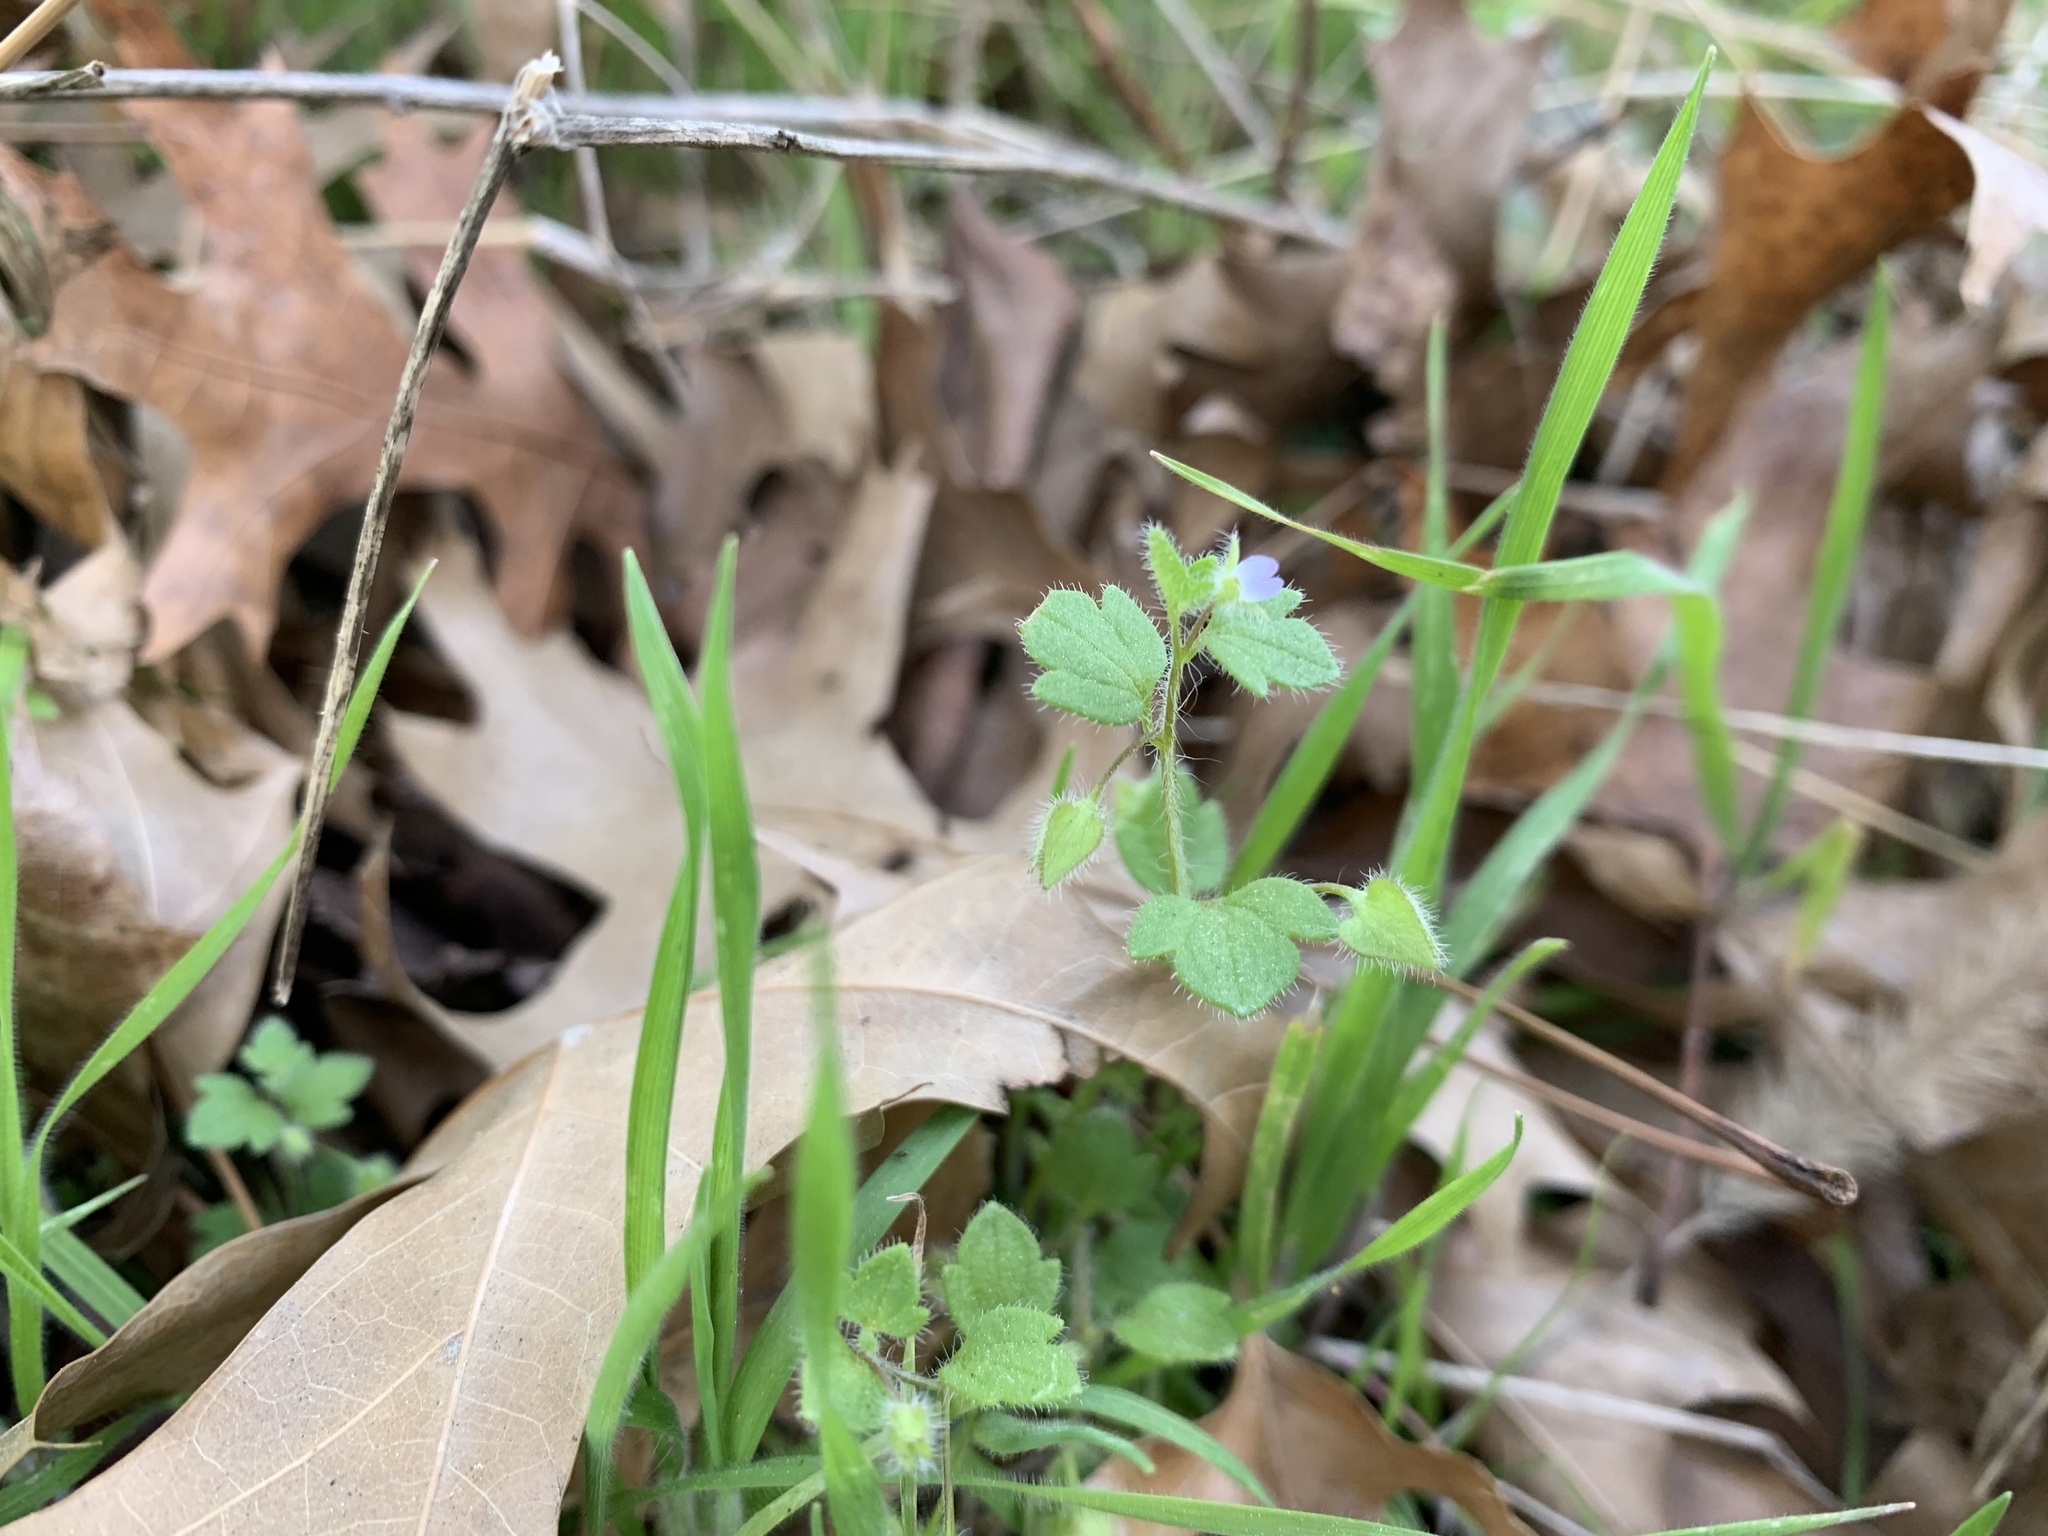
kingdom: Plantae
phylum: Tracheophyta
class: Magnoliopsida
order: Lamiales
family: Plantaginaceae
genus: Veronica
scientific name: Veronica hederifolia
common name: Ivy-leaved speedwell
